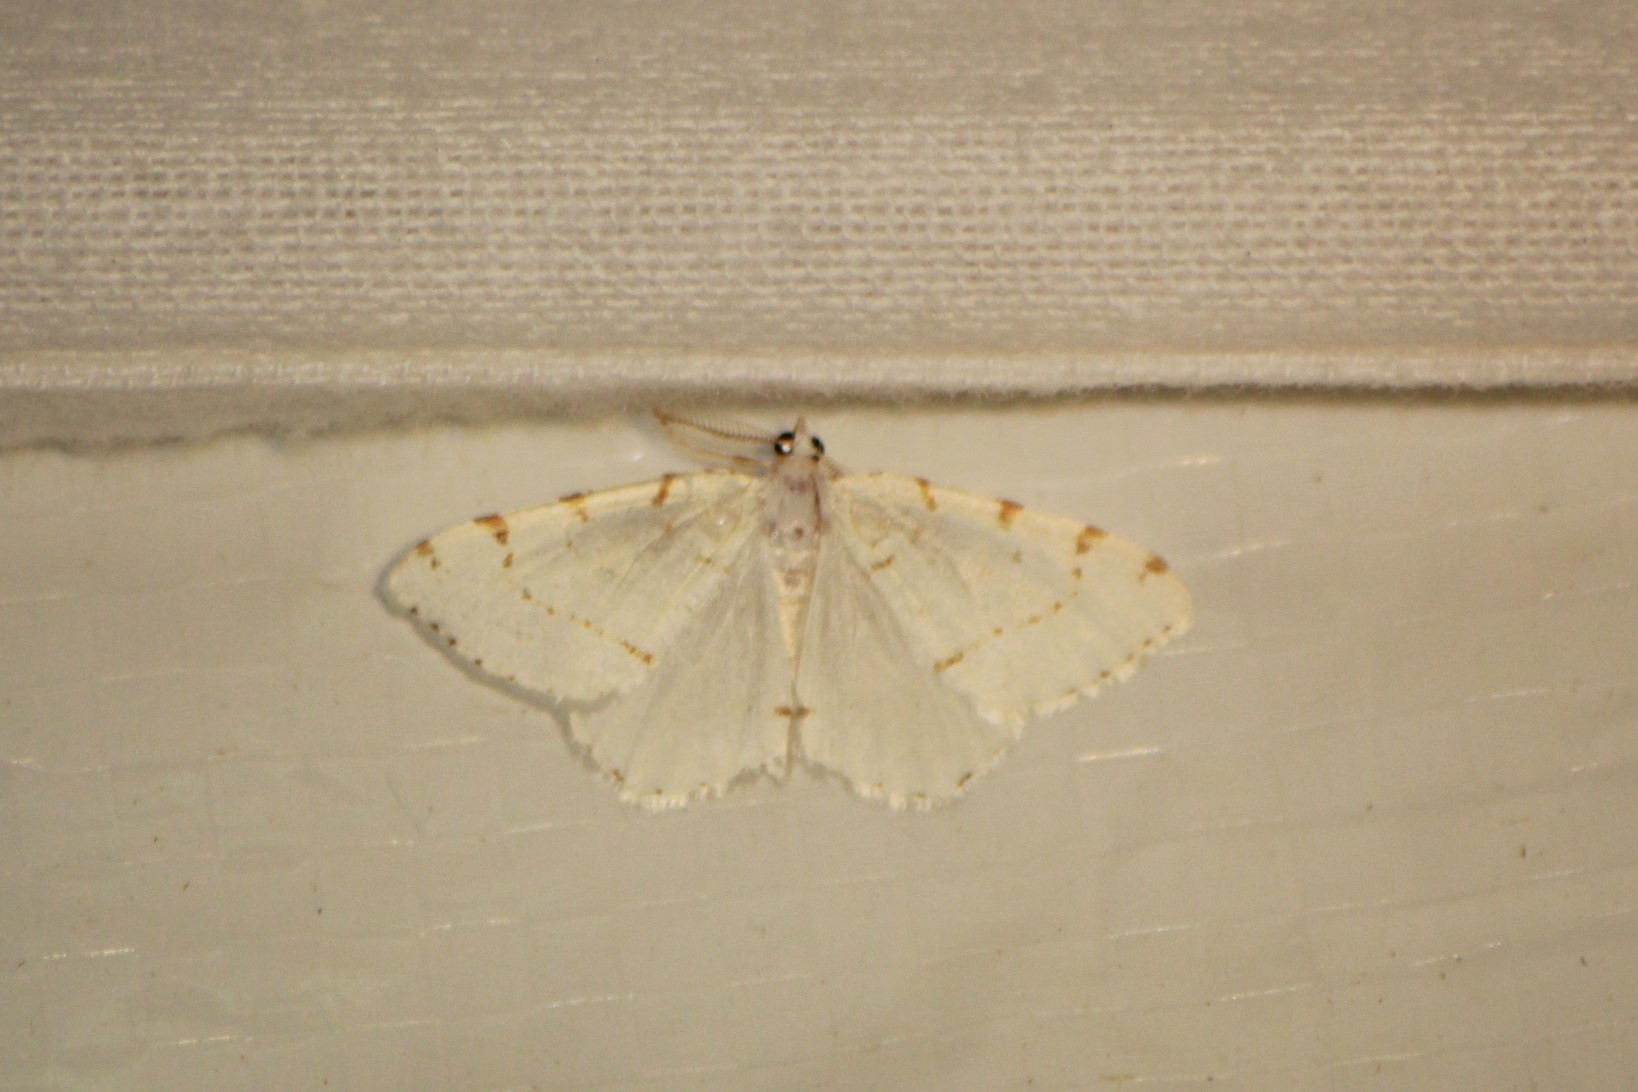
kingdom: Animalia
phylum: Arthropoda
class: Insecta
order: Lepidoptera
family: Geometridae
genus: Macaria
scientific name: Macaria pustularia
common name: Lesser maple spanworm moth
